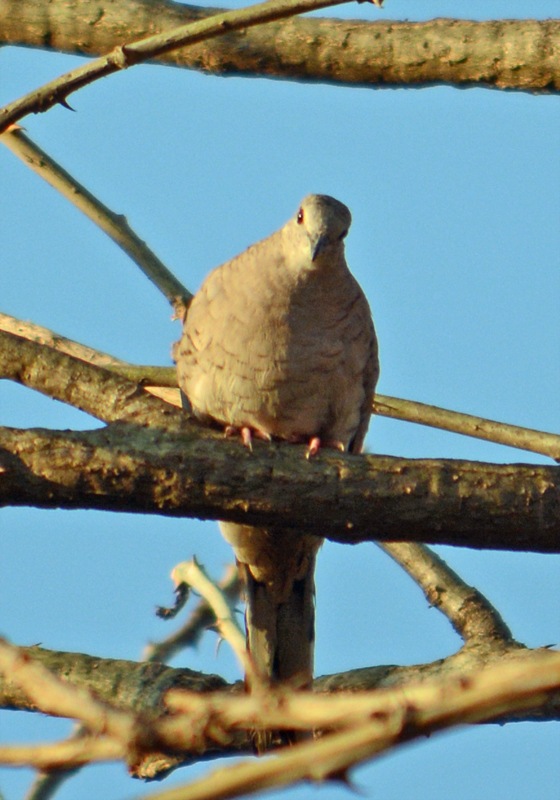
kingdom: Animalia
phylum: Chordata
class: Aves
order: Columbiformes
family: Columbidae
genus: Columbina
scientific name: Columbina inca
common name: Inca dove
